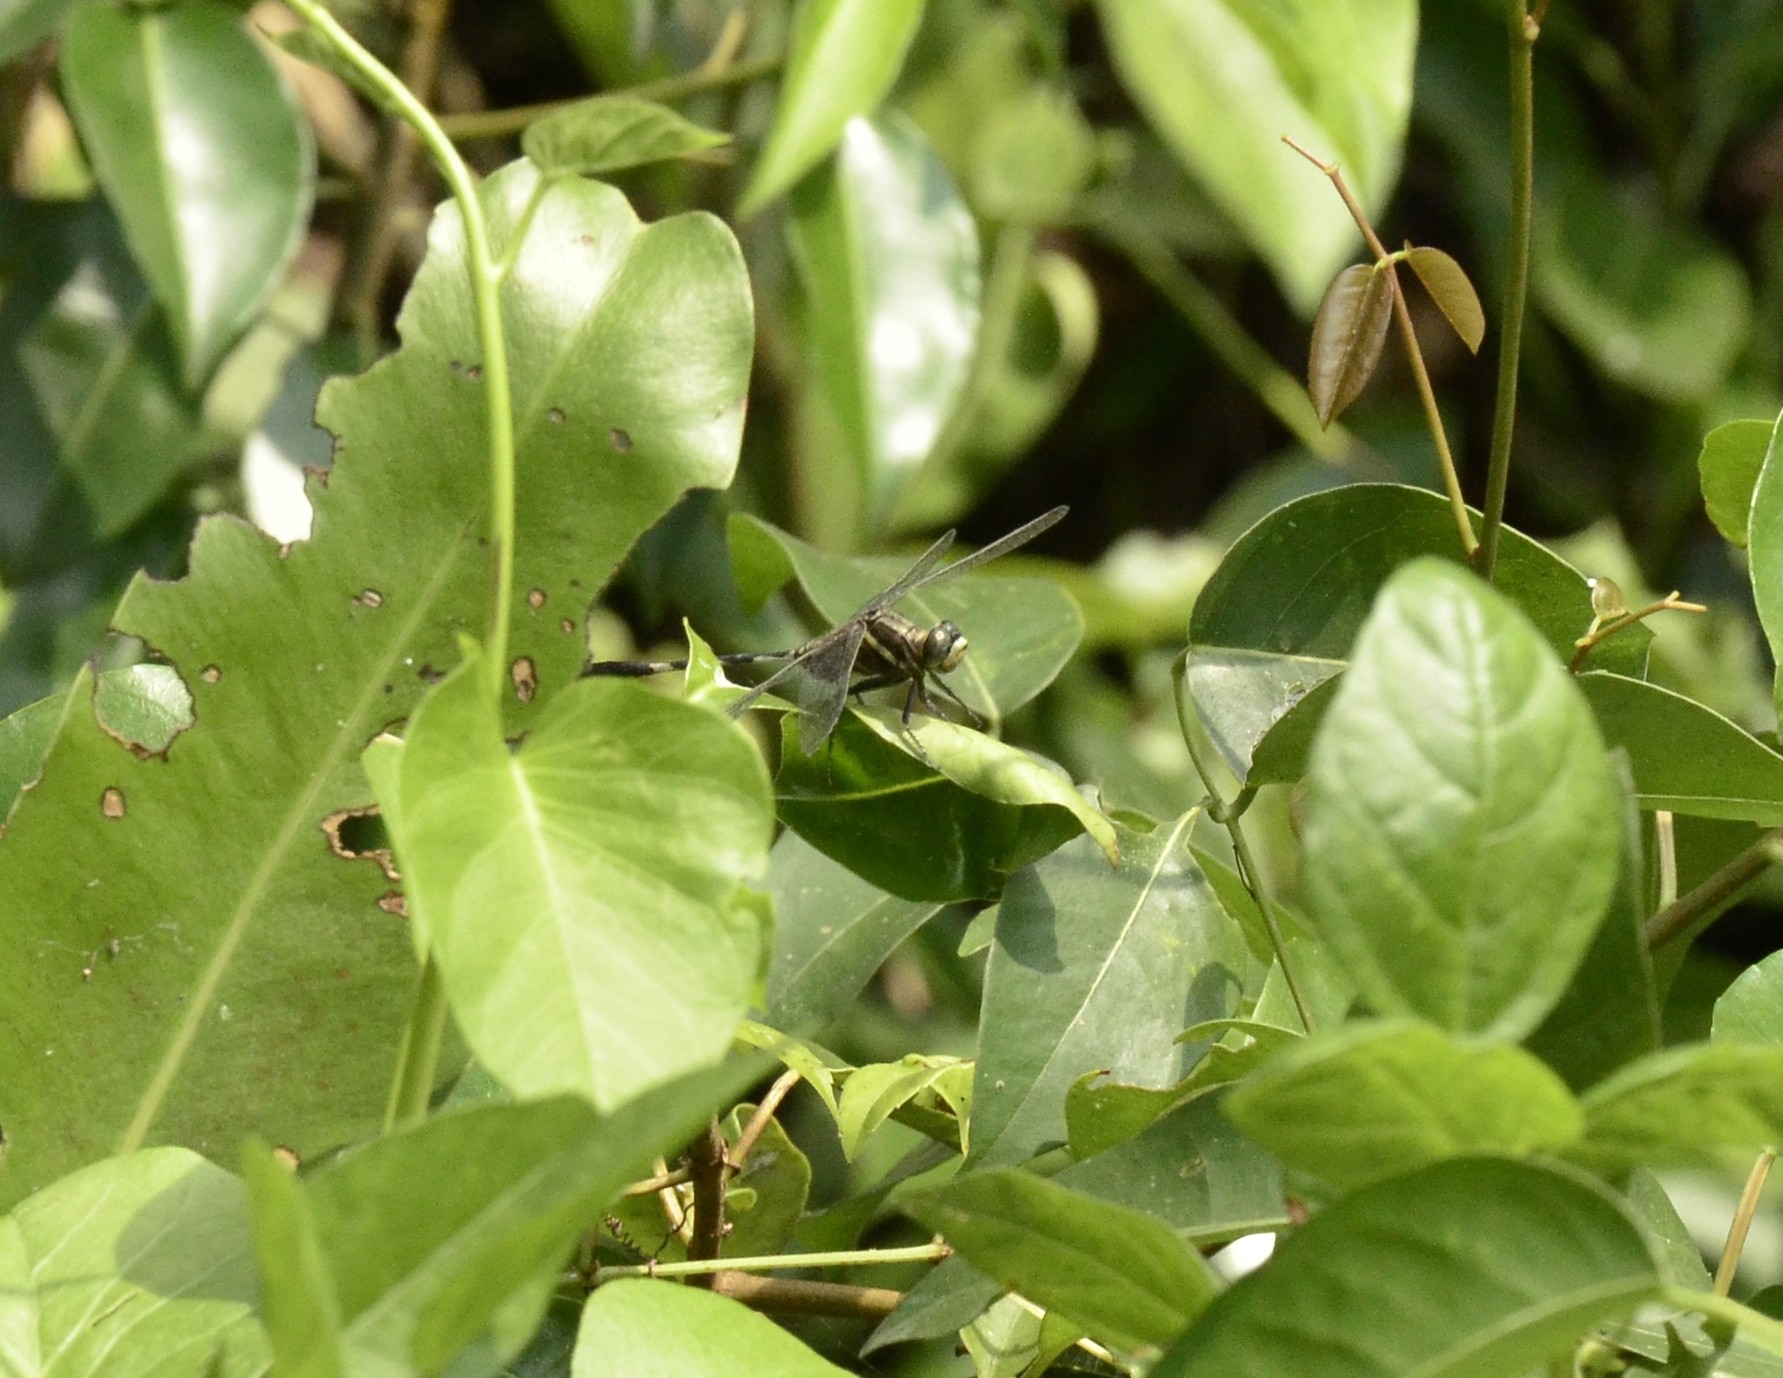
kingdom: Animalia
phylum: Arthropoda
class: Insecta
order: Odonata
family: Libellulidae
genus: Orthetrum
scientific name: Orthetrum sabina
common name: Slender skimmer
